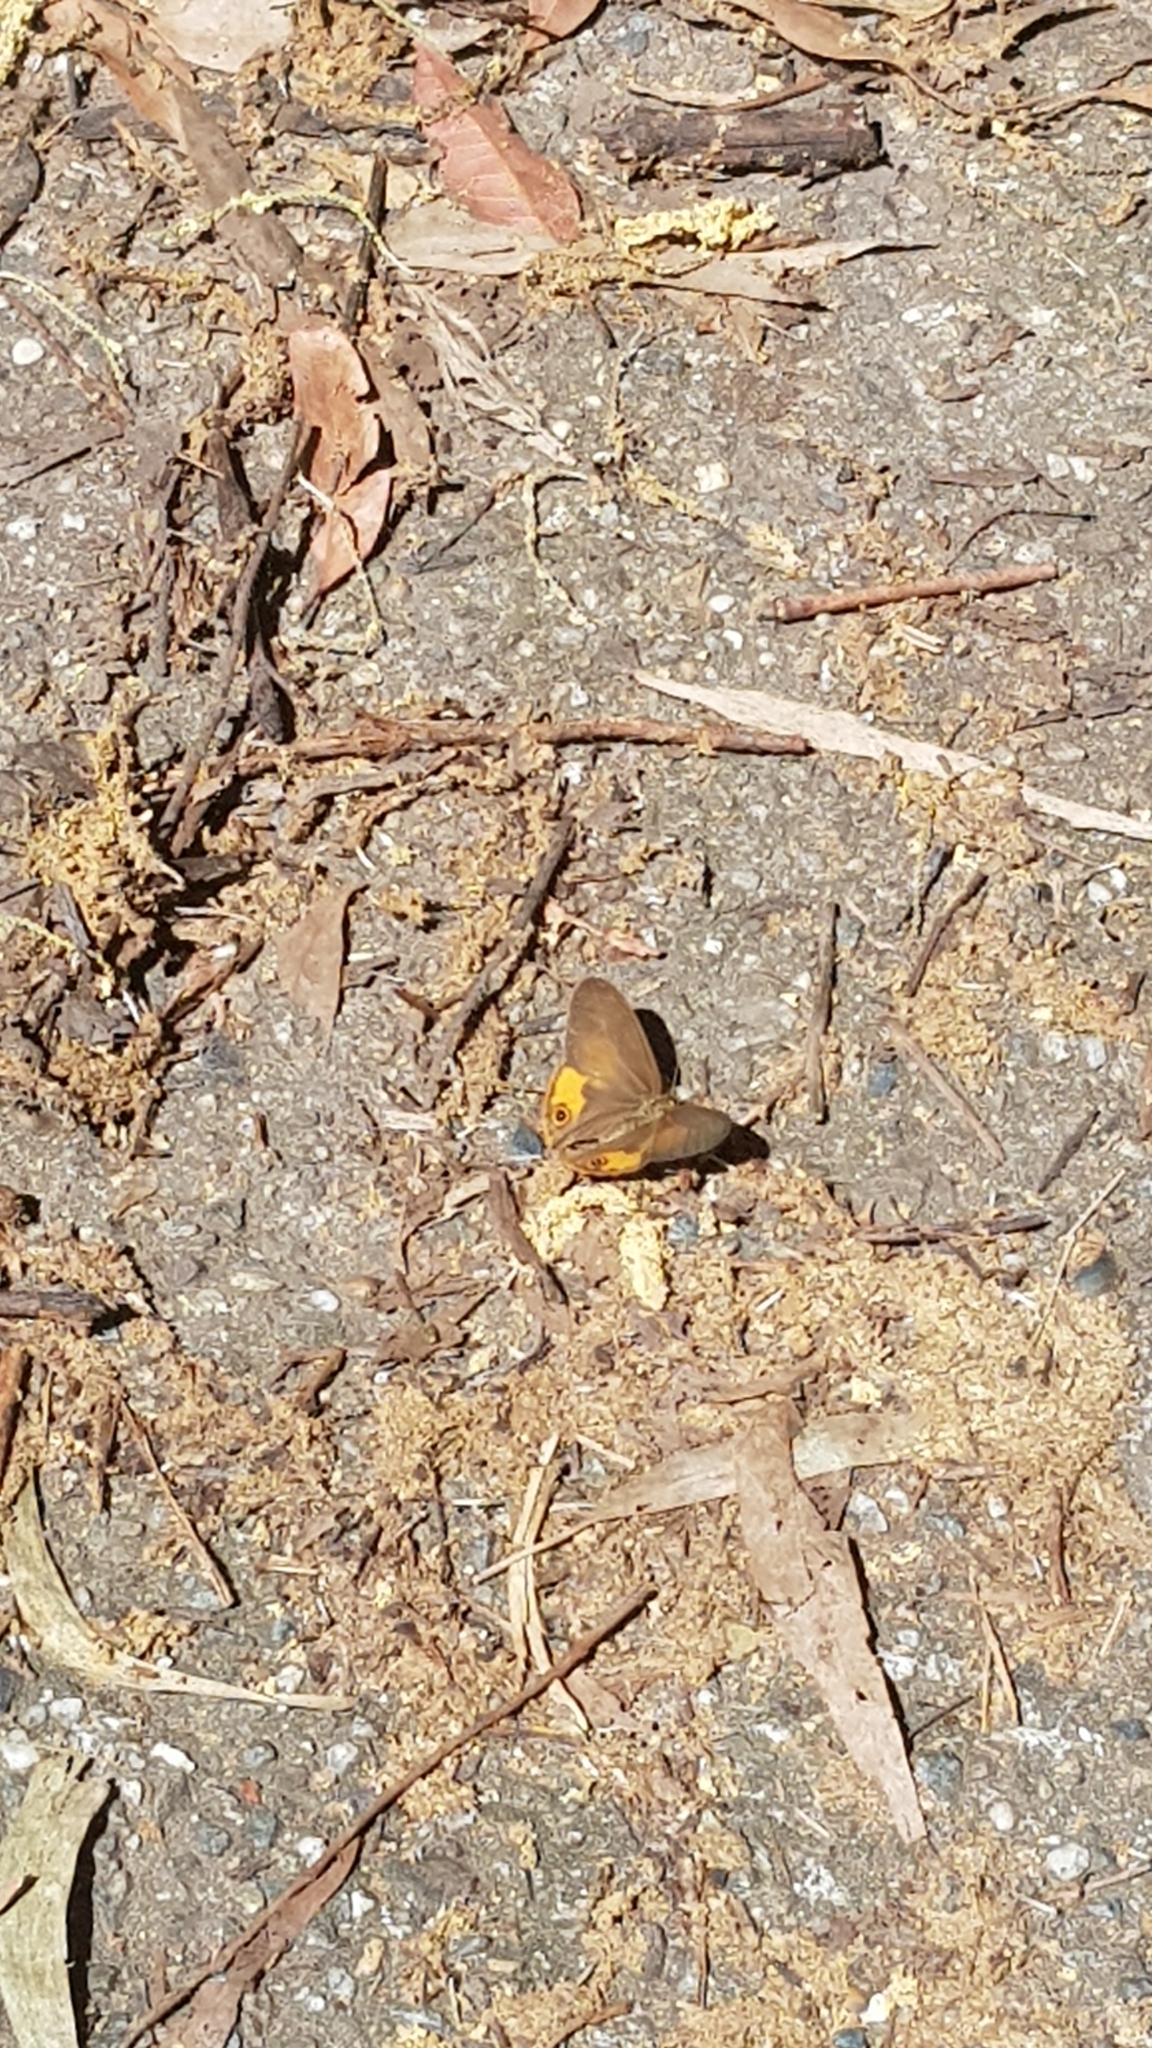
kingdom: Animalia
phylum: Arthropoda
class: Insecta
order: Lepidoptera
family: Nymphalidae
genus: Hypocysta
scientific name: Hypocysta metirius
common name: Brown ringlet
